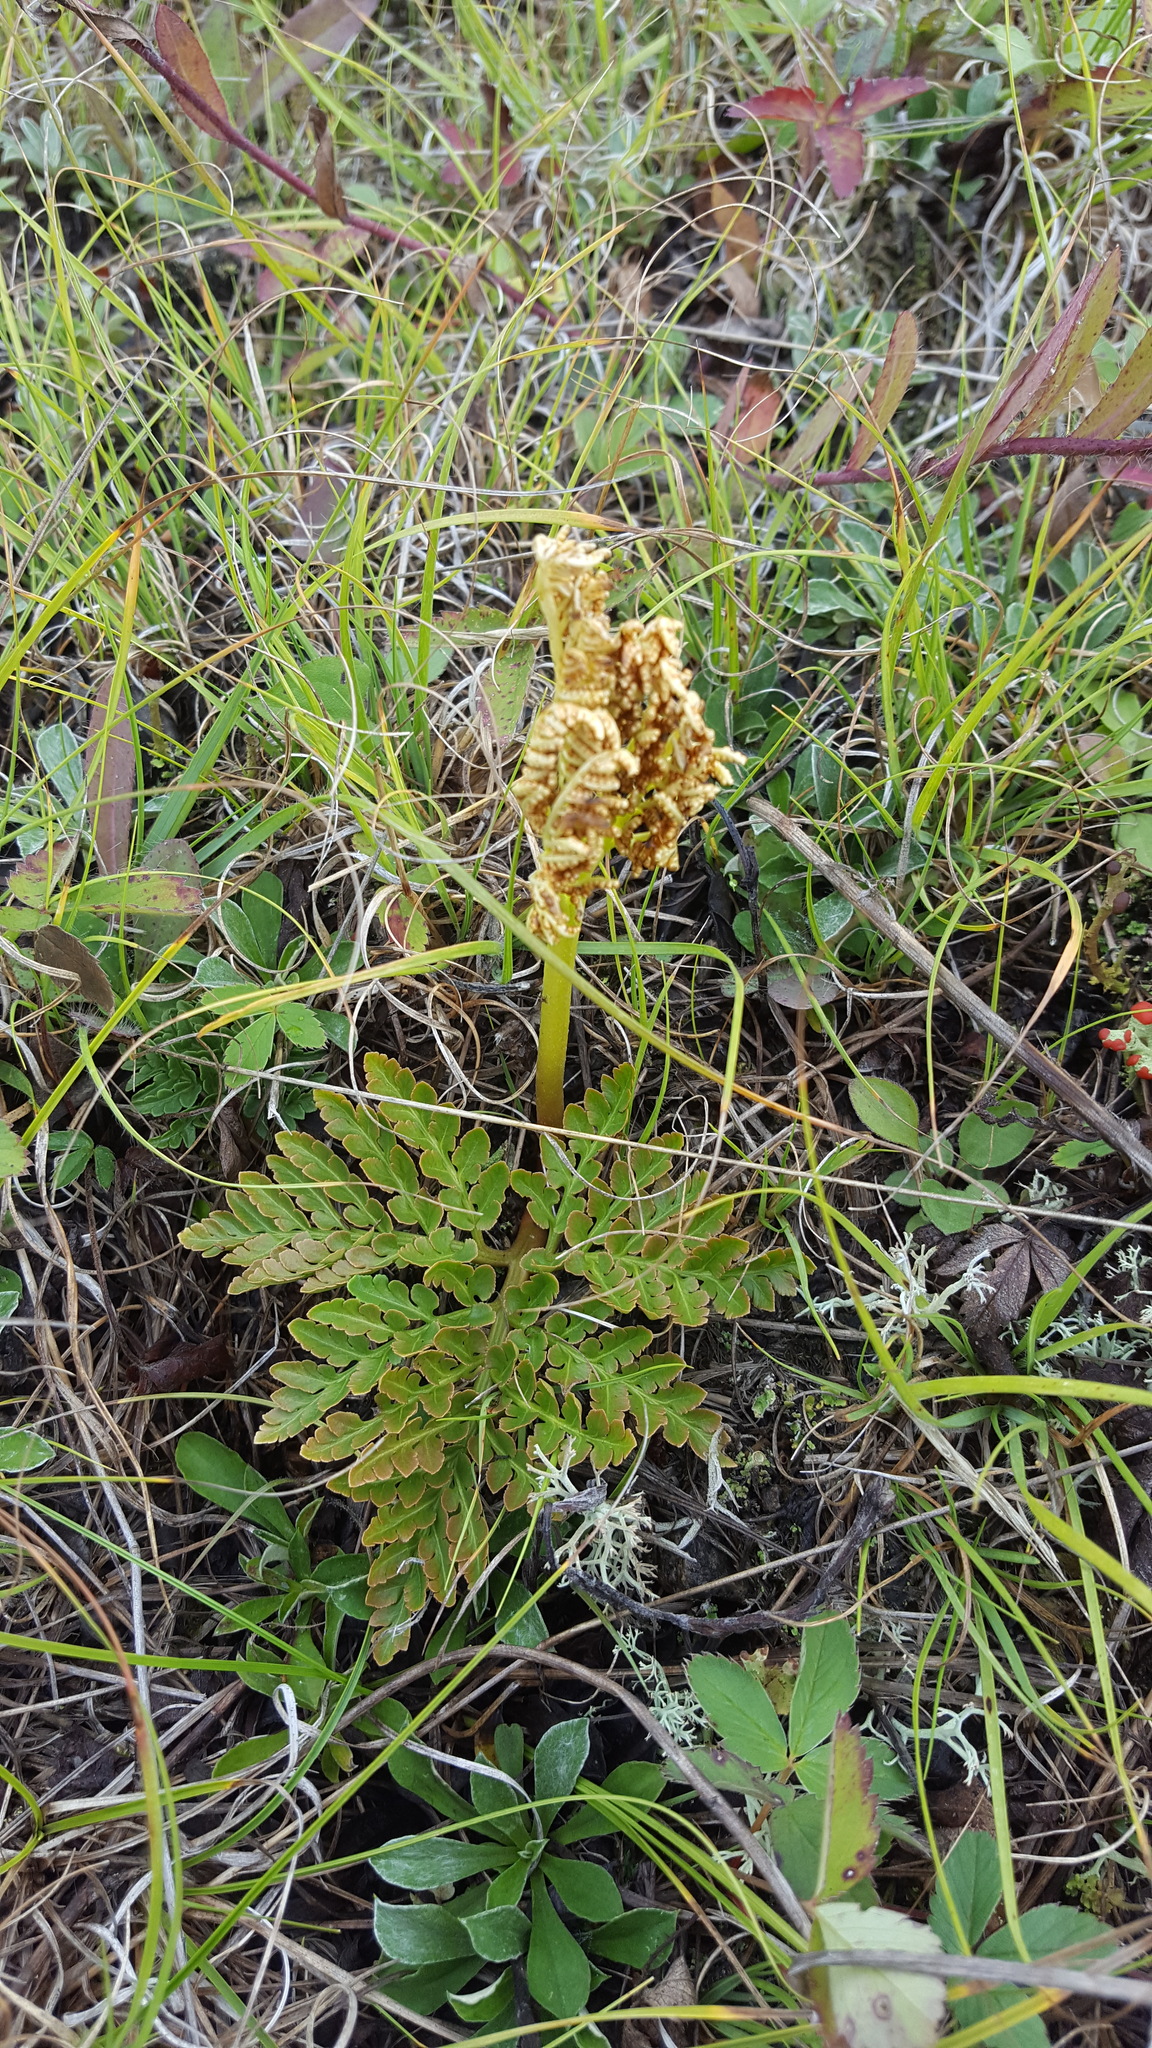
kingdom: Plantae
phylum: Tracheophyta
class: Polypodiopsida
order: Ophioglossales
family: Ophioglossaceae
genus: Sceptridium
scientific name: Sceptridium multifidum
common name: Leathery grape fern
